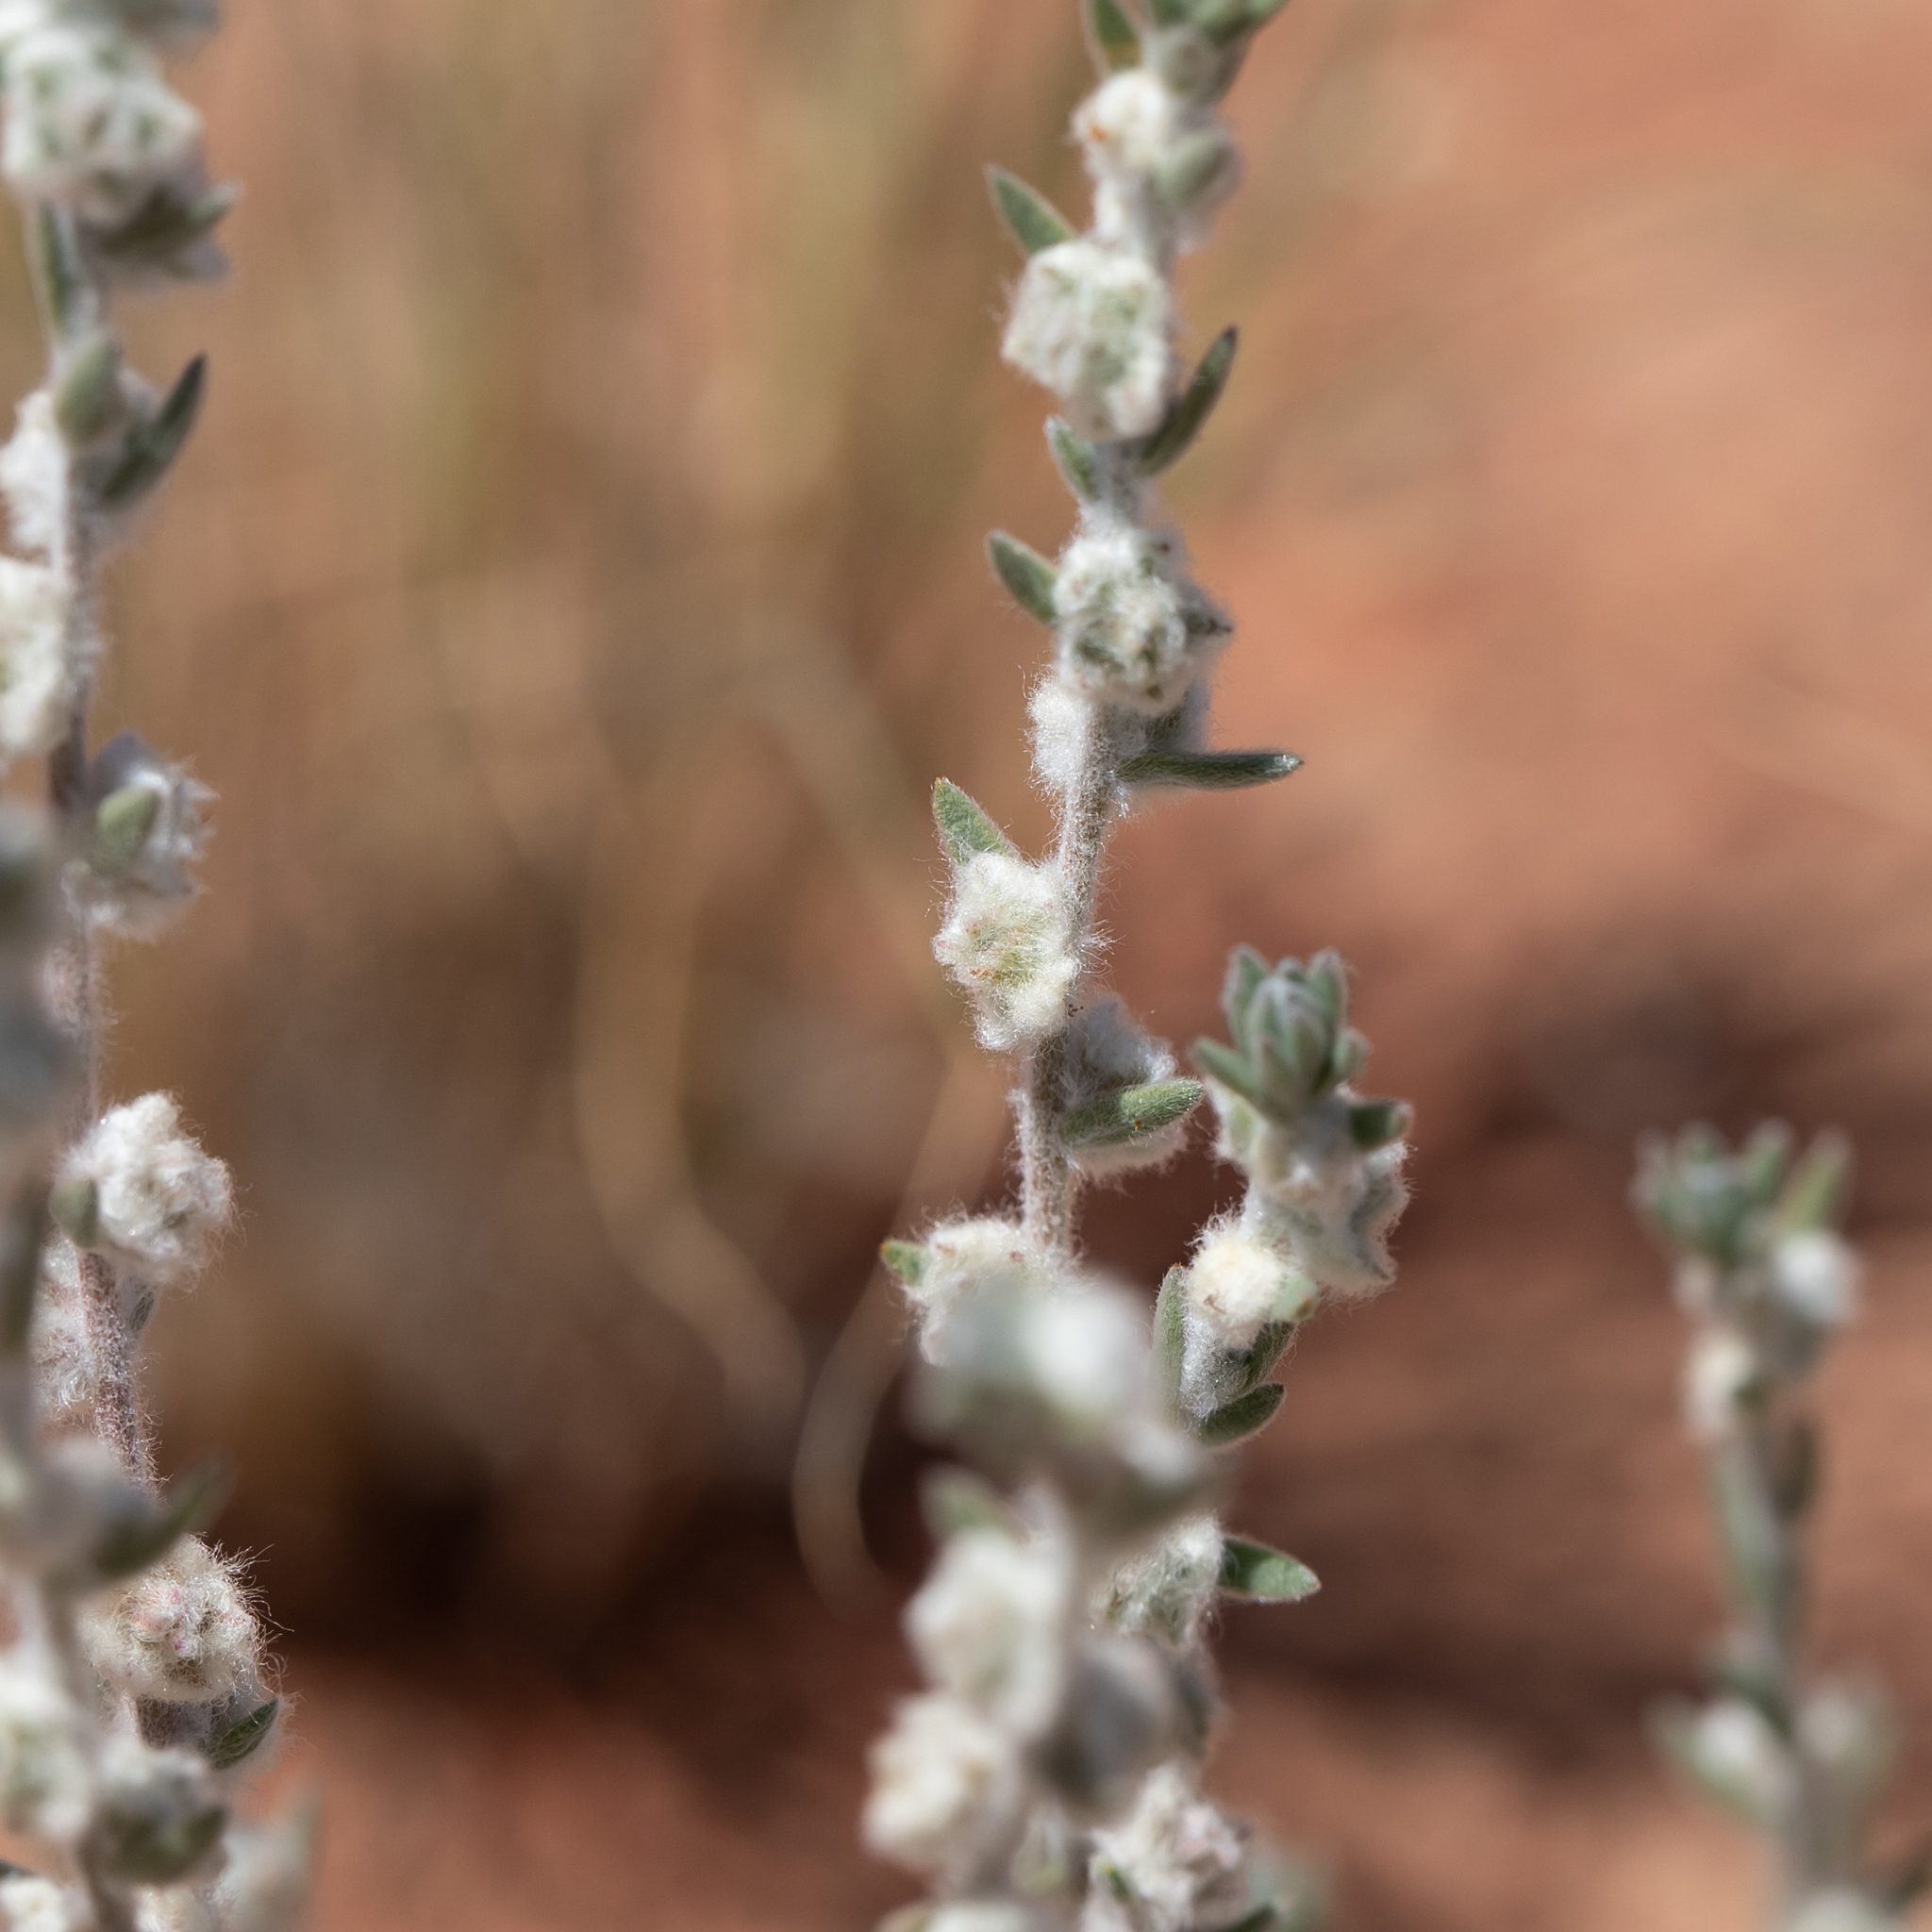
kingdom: Plantae
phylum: Tracheophyta
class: Magnoliopsida
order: Caryophyllales
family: Amaranthaceae
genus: Maireana
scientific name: Maireana sclerolaenoides
